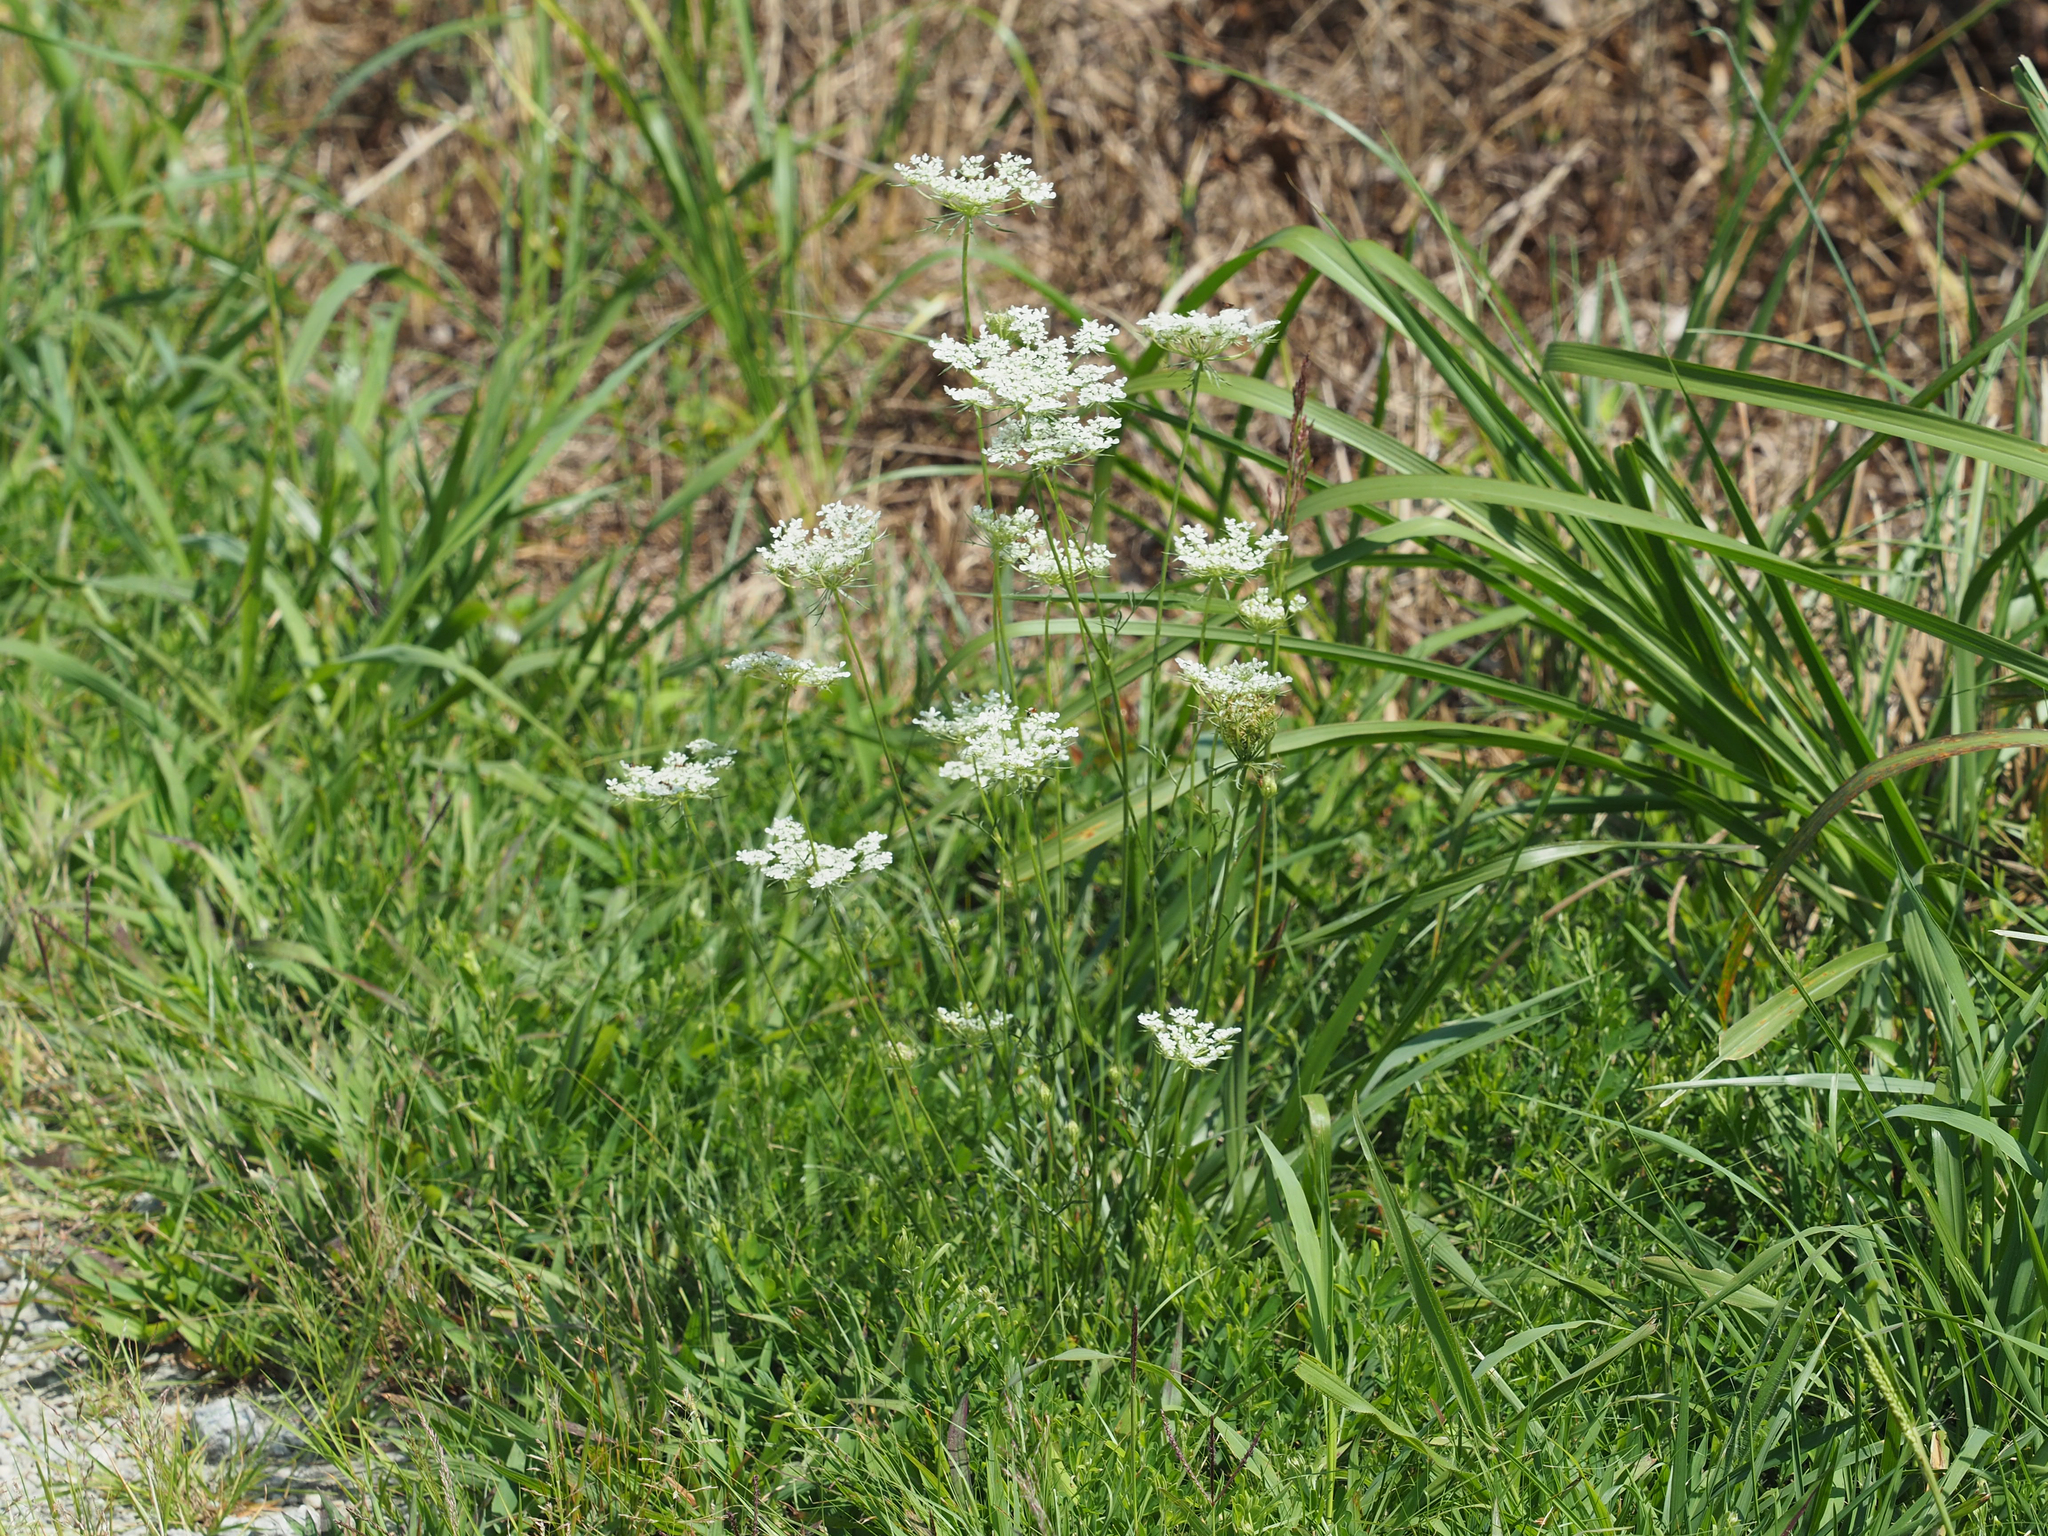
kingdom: Plantae
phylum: Tracheophyta
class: Magnoliopsida
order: Apiales
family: Apiaceae
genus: Daucus
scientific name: Daucus carota
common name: Wild carrot
